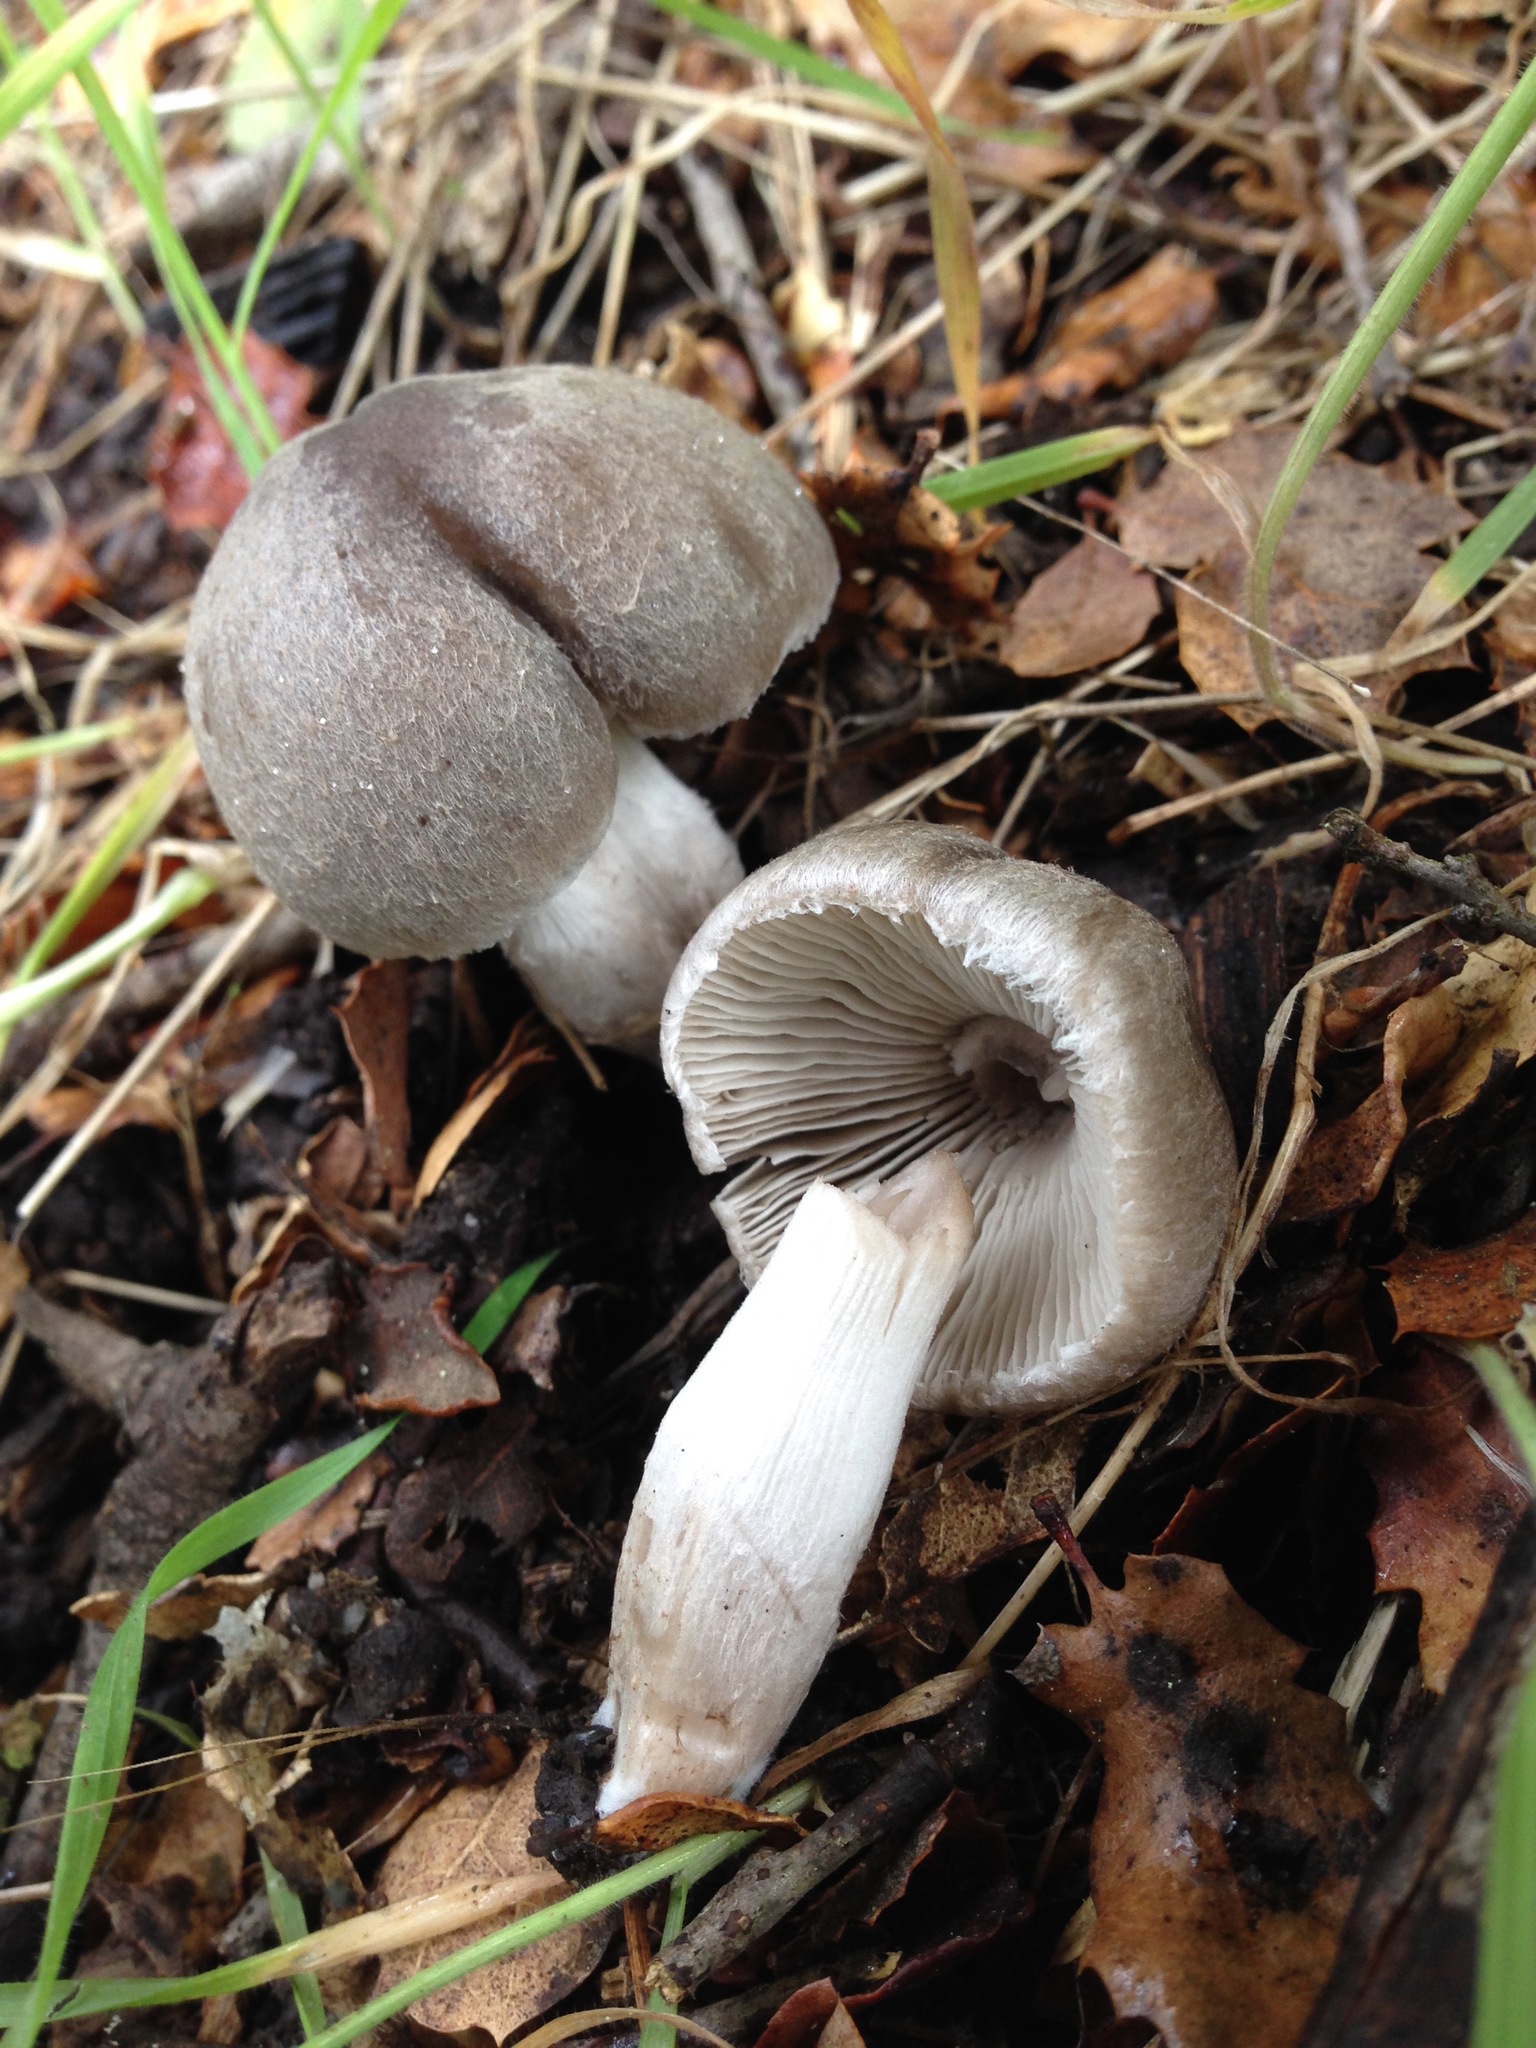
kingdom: Fungi
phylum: Basidiomycota
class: Agaricomycetes
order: Agaricales
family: Psathyrellaceae
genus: Psathyrella
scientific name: Psathyrella uliginicola
